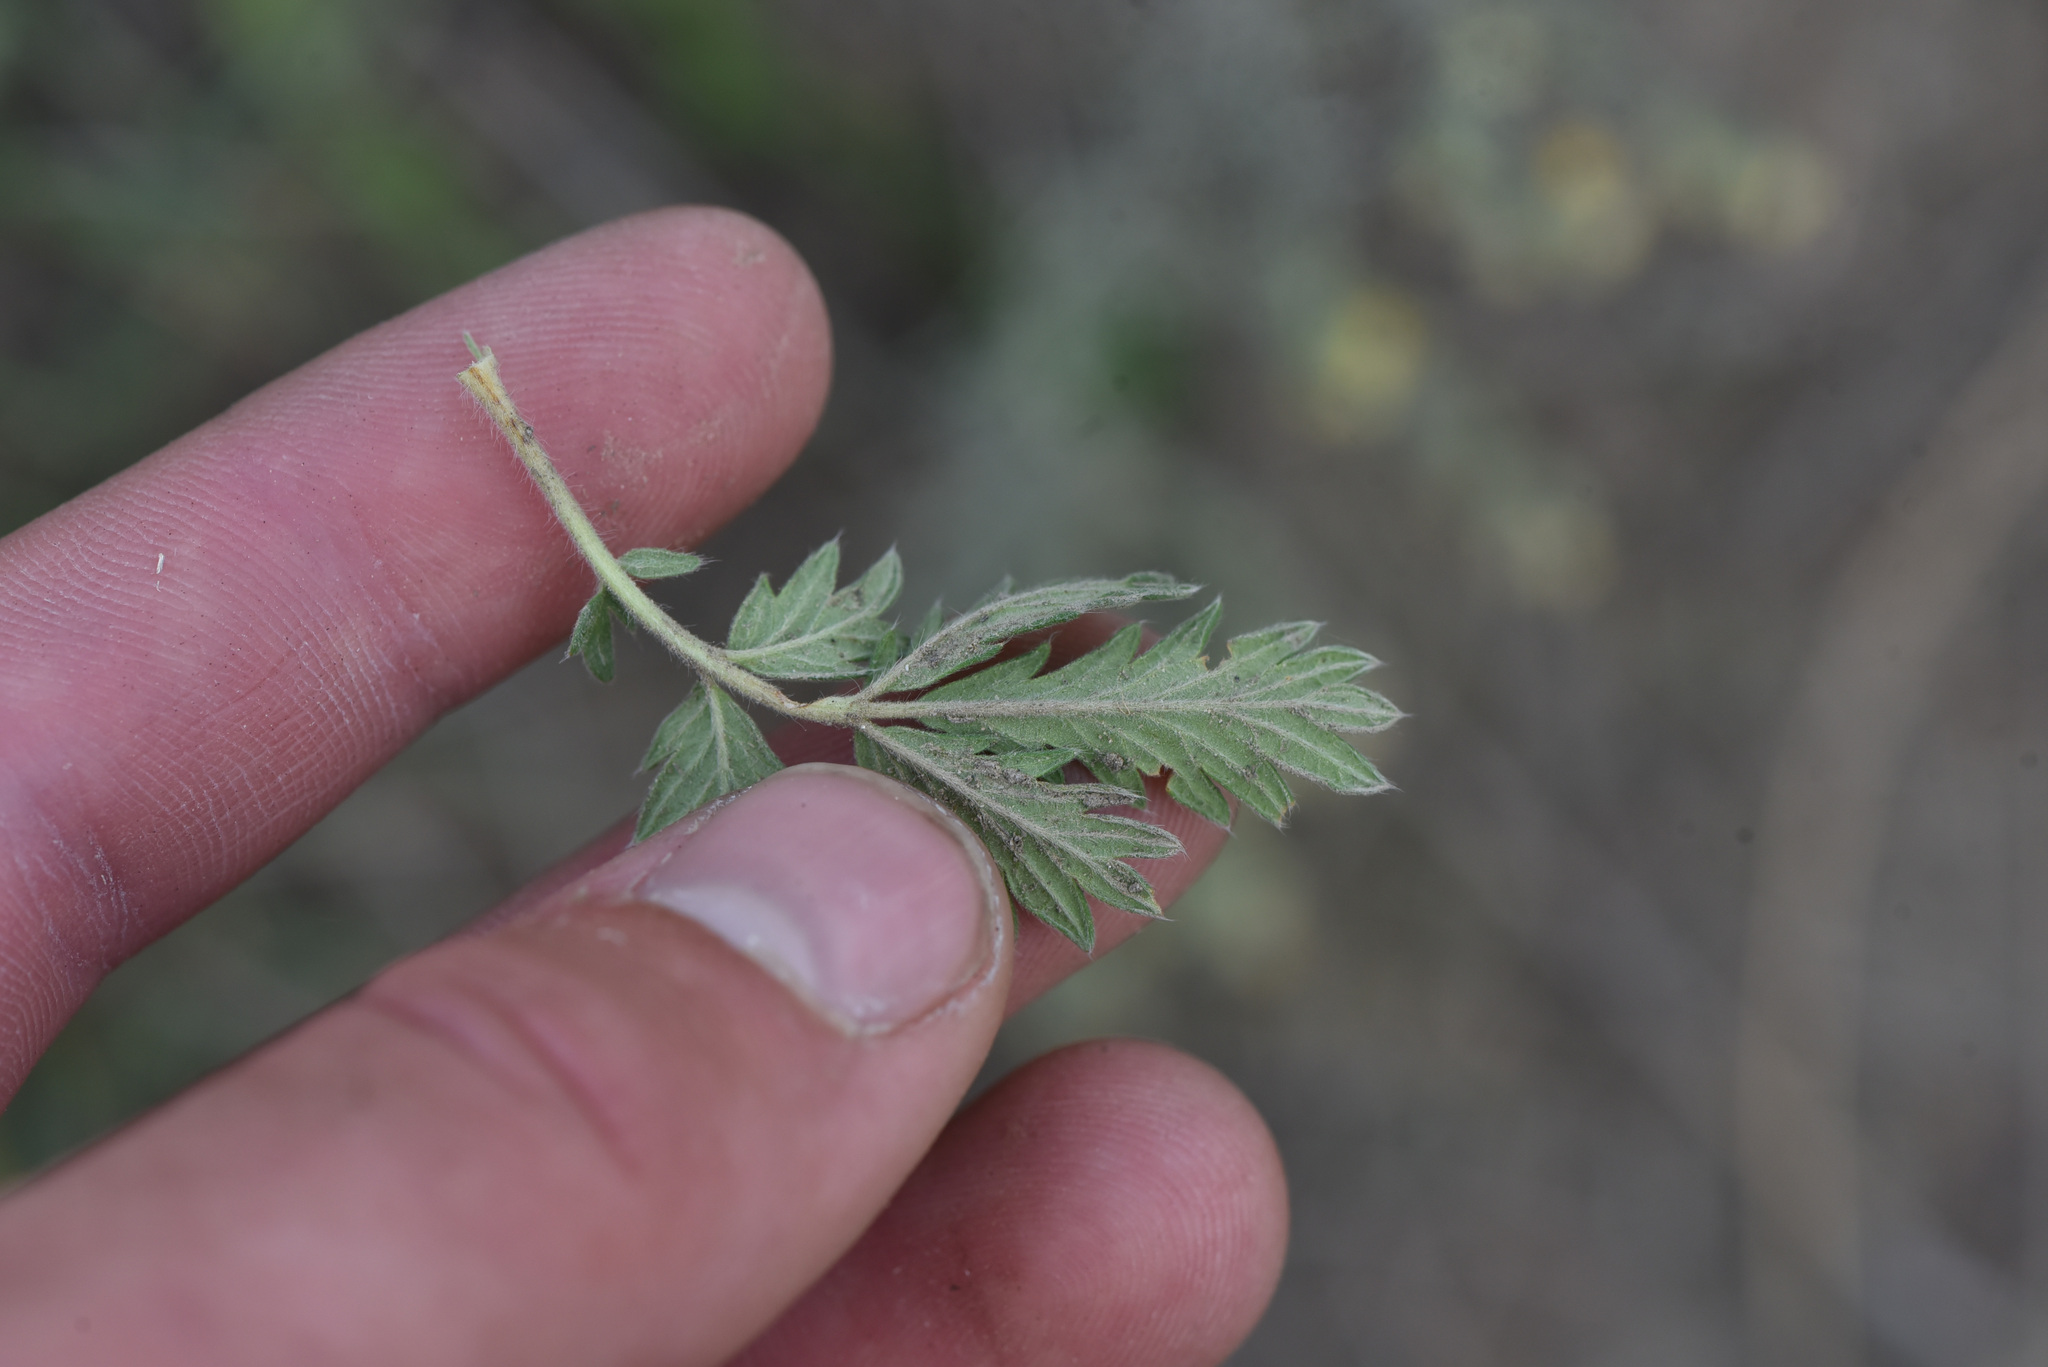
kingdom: Plantae
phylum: Tracheophyta
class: Magnoliopsida
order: Rosales
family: Rosaceae
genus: Potentilla
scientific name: Potentilla pensylvanica
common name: Pennsylvania cinquefoil
